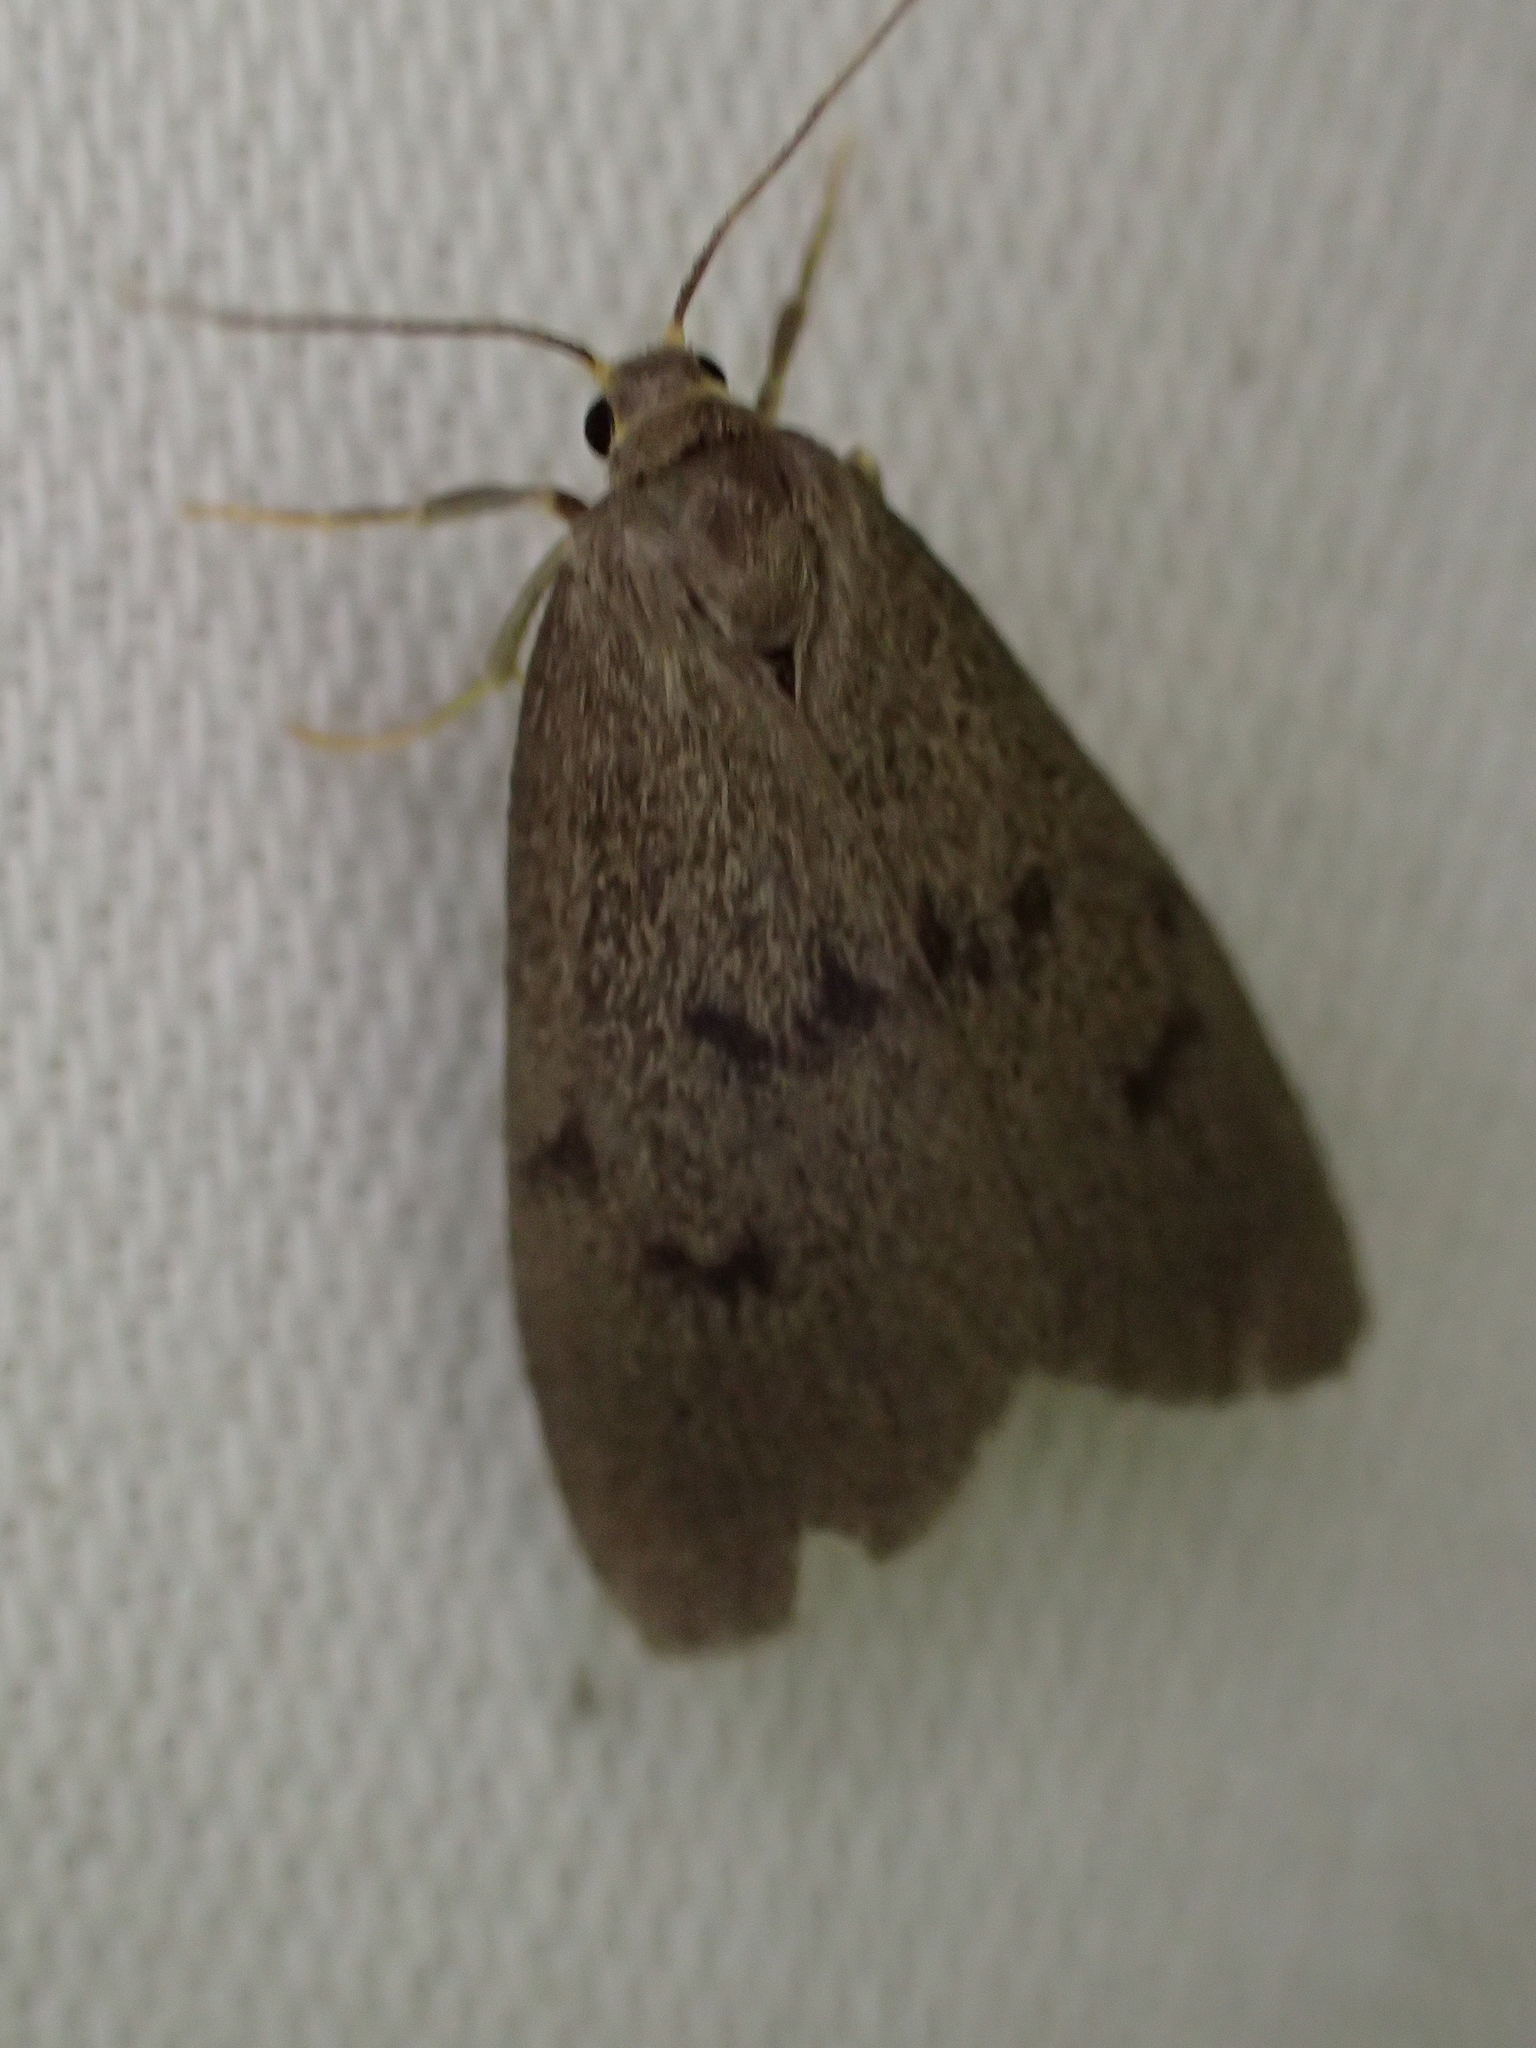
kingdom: Animalia
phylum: Arthropoda
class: Insecta
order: Lepidoptera
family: Erebidae
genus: Apaidia
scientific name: Apaidia mesogona
